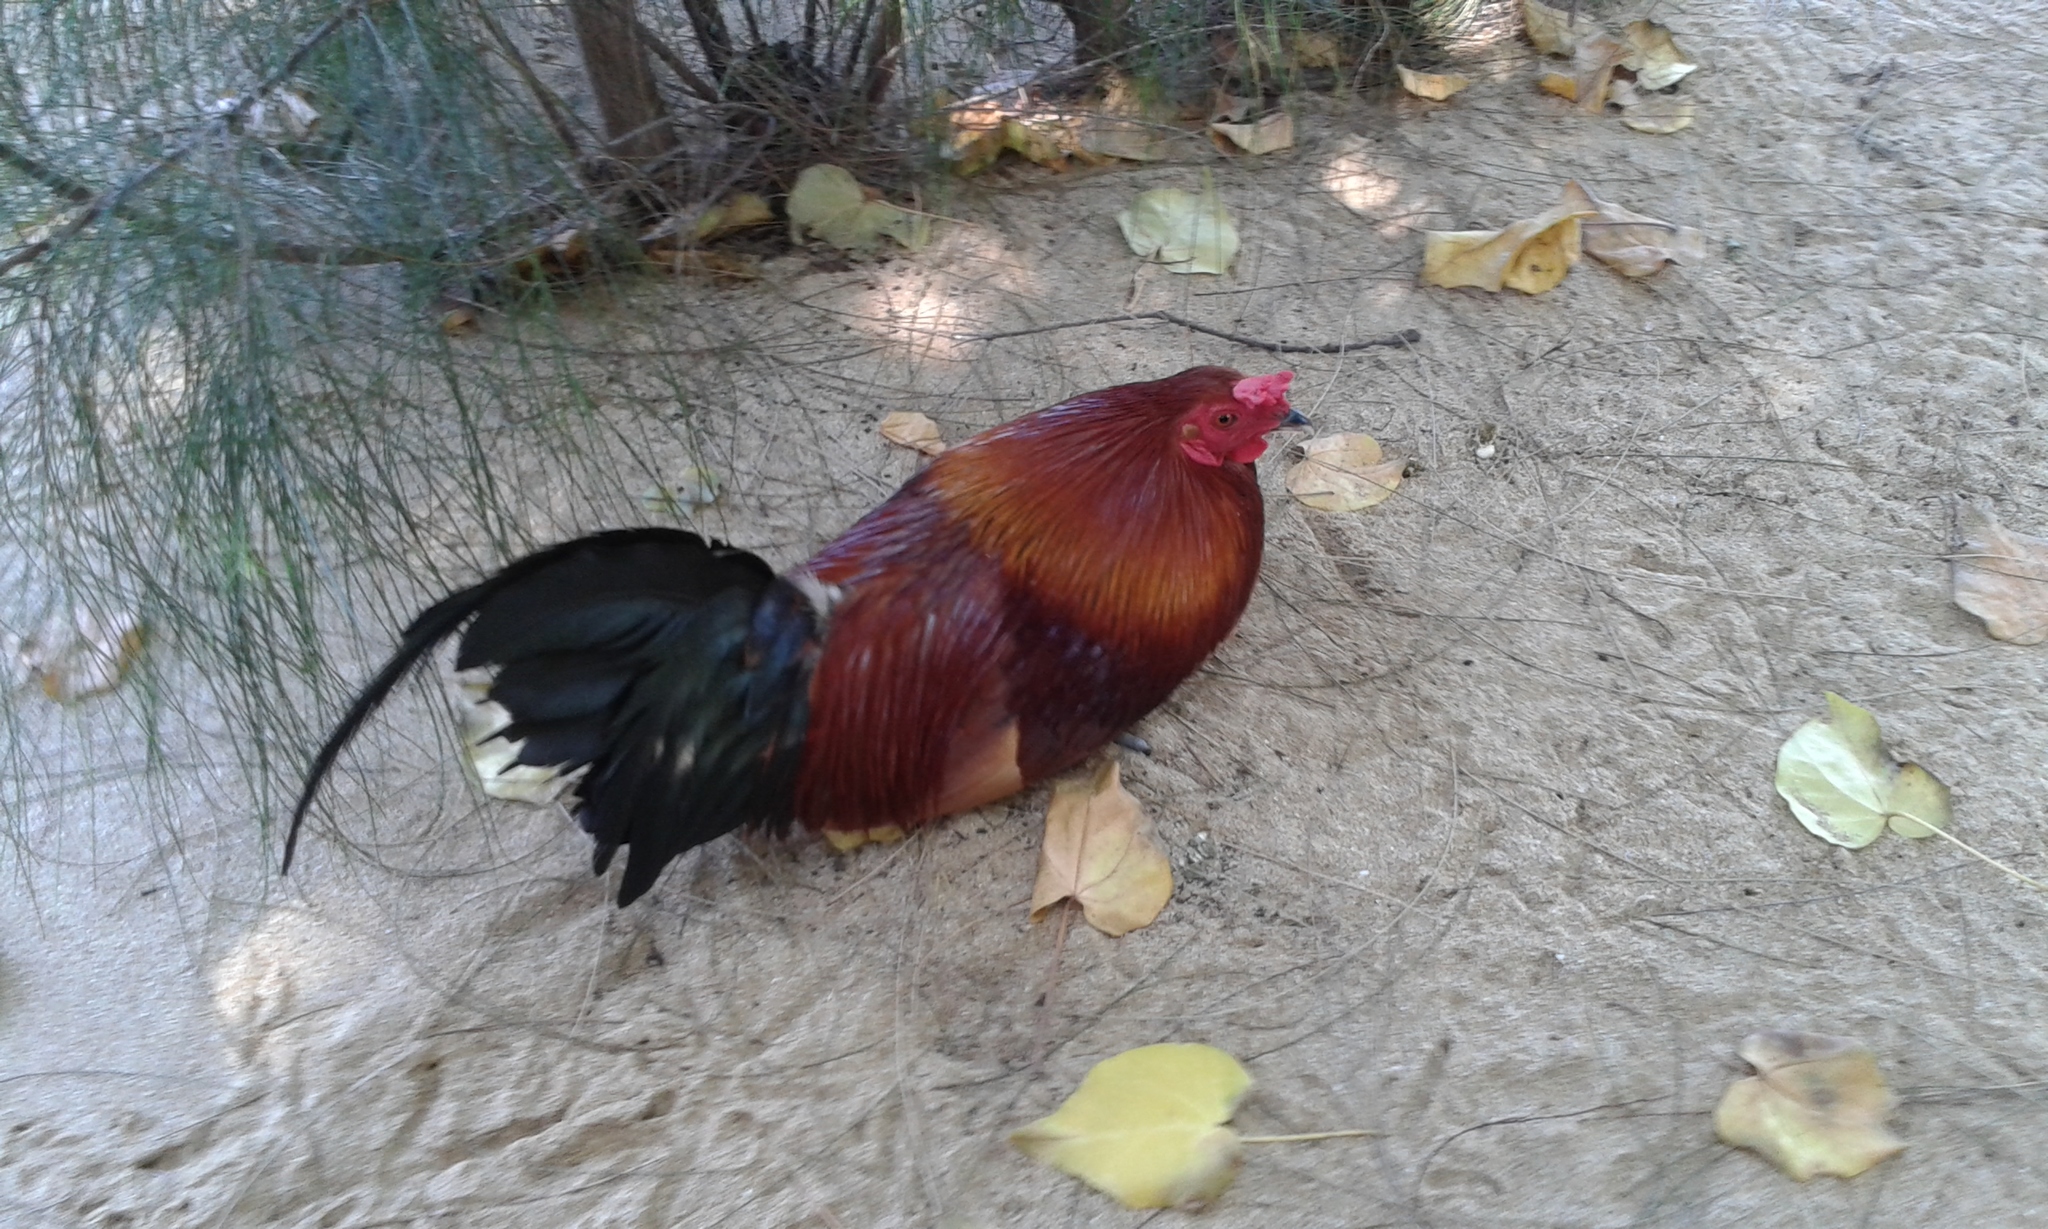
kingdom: Animalia
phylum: Chordata
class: Aves
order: Galliformes
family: Phasianidae
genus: Gallus
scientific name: Gallus gallus
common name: Red junglefowl
